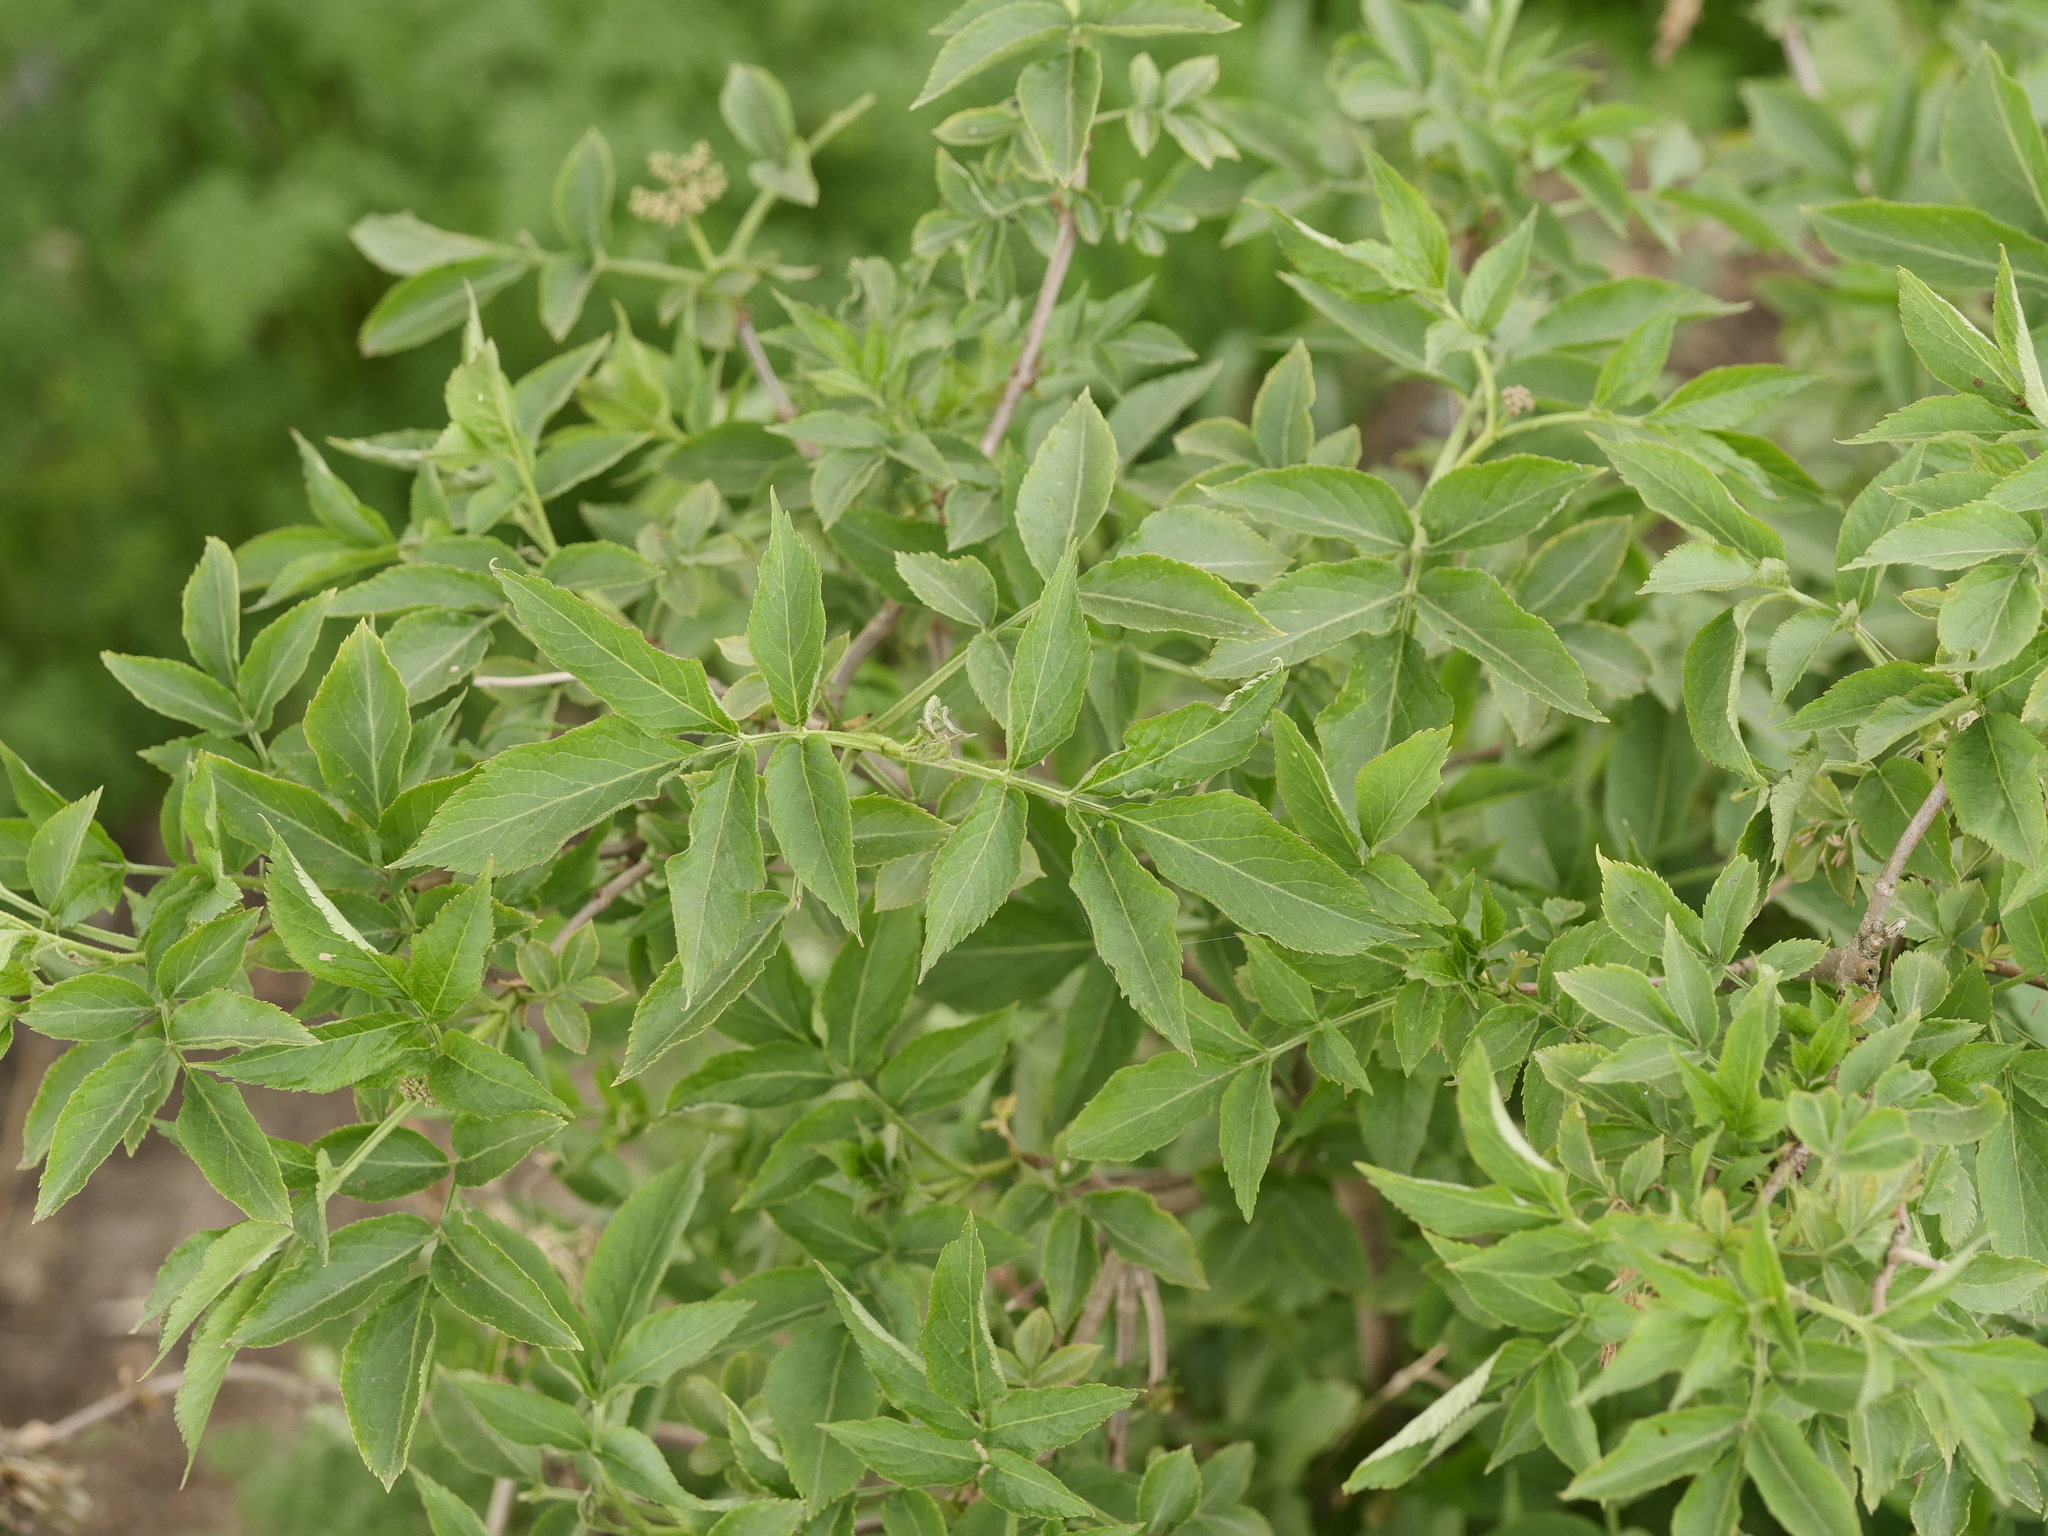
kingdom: Plantae
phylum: Tracheophyta
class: Magnoliopsida
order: Dipsacales
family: Viburnaceae
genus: Sambucus
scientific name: Sambucus nigra
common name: Elder
